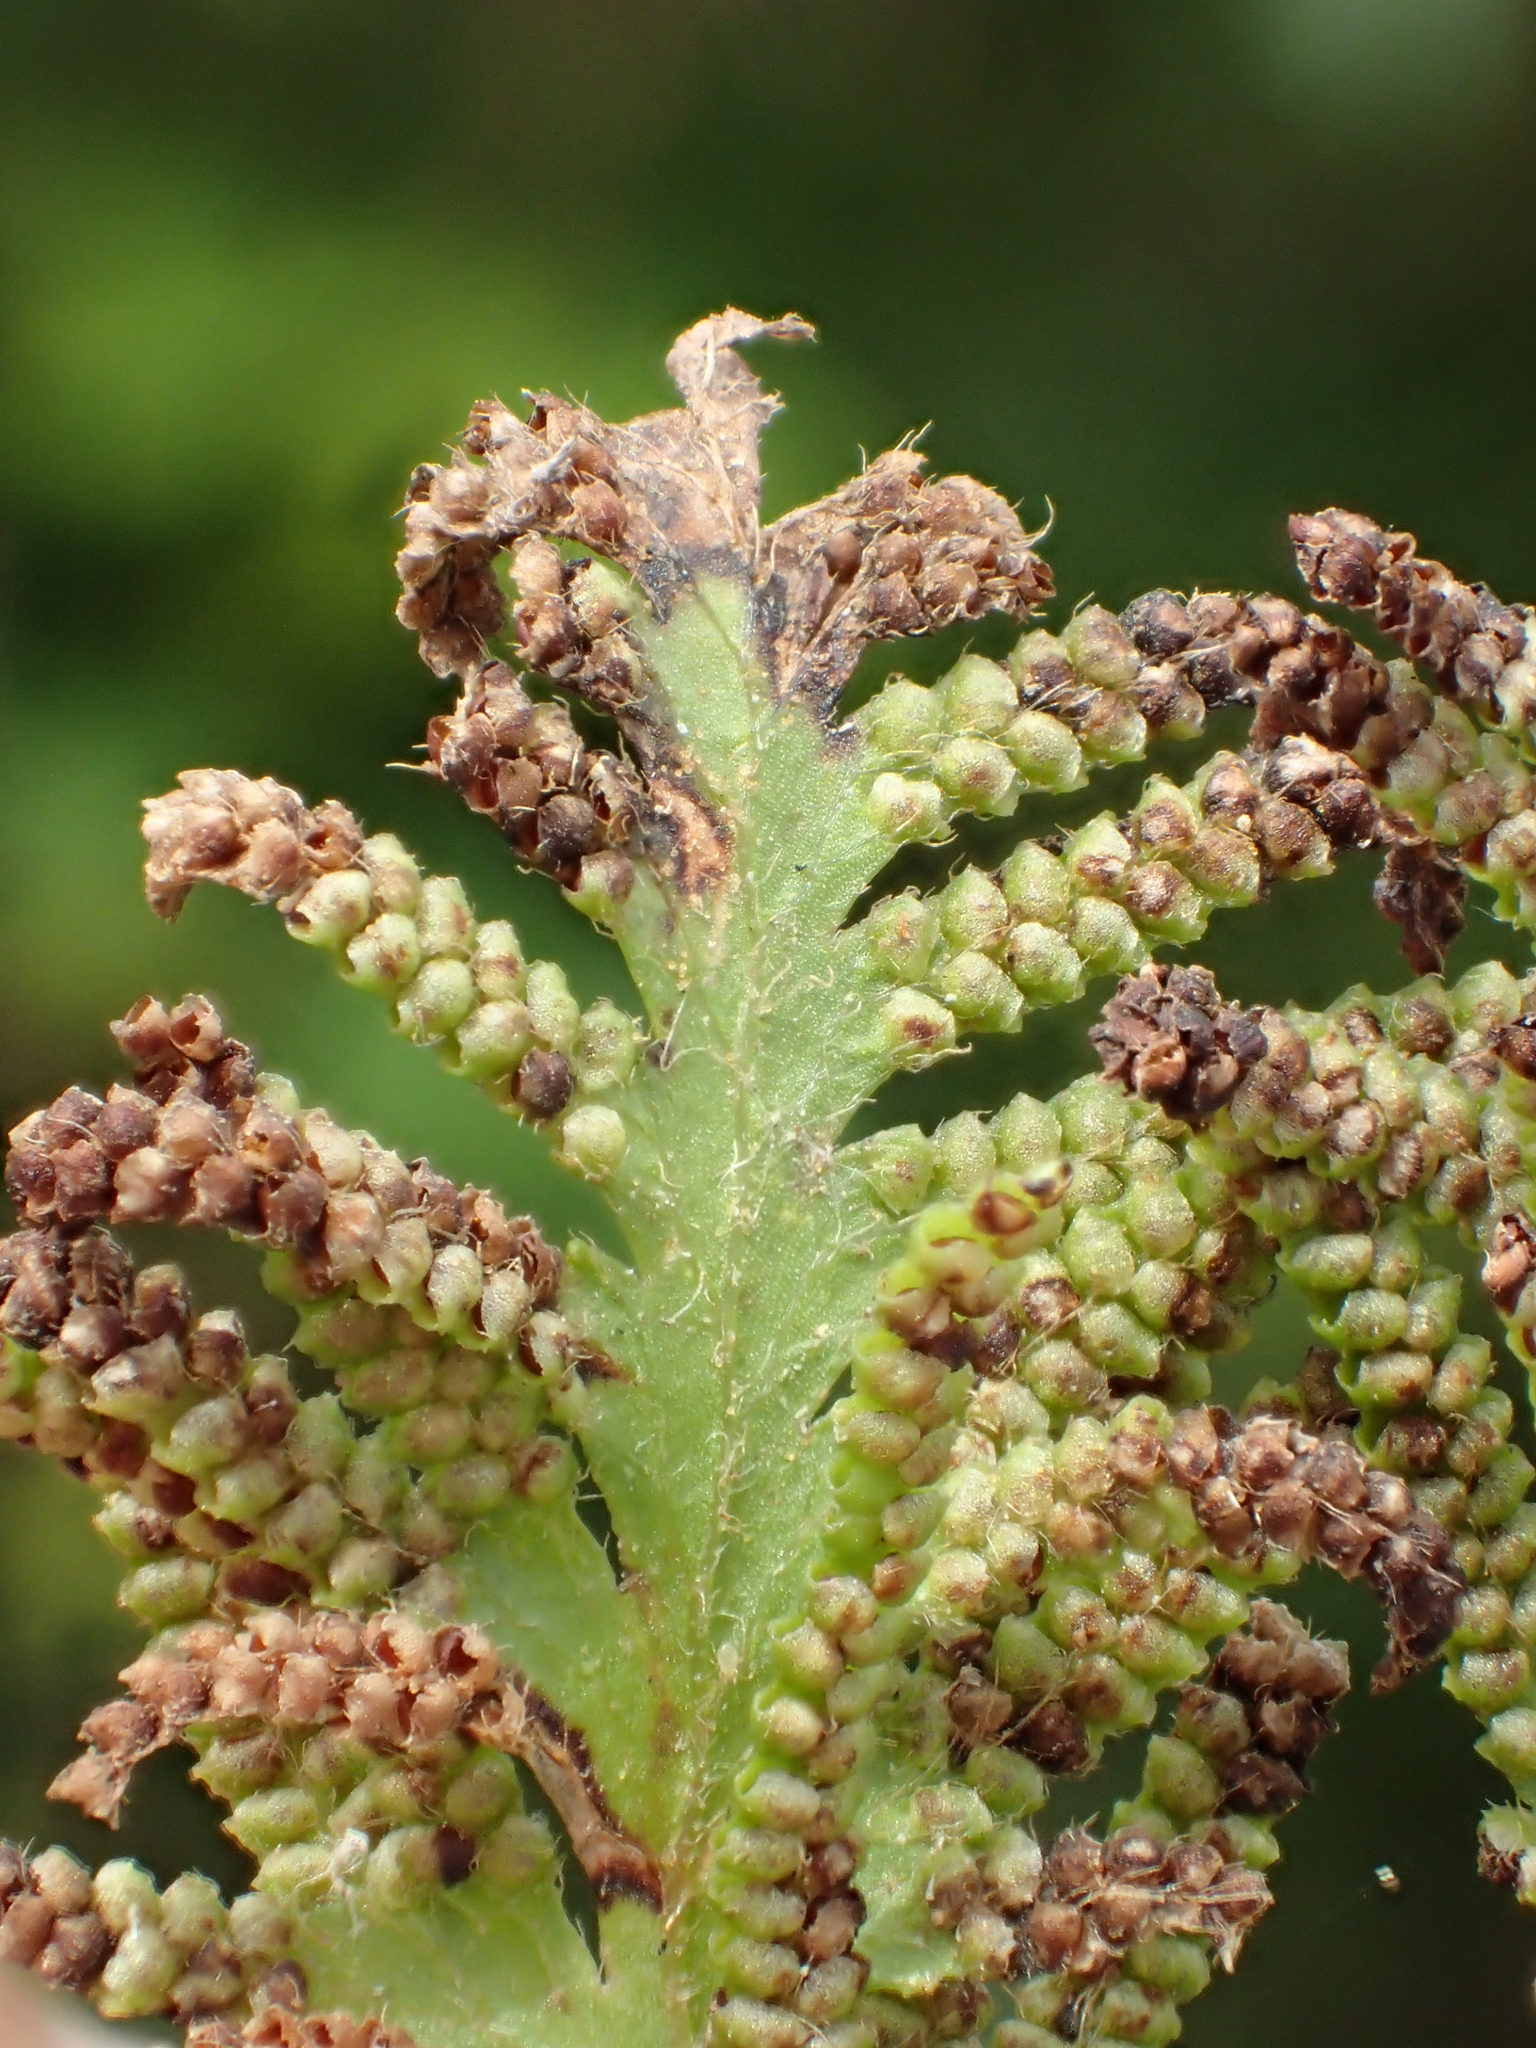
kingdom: Plantae
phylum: Tracheophyta
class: Polypodiopsida
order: Schizaeales
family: Lygodiaceae
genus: Lygodium
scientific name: Lygodium japonicum
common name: Japanese climbing fern
